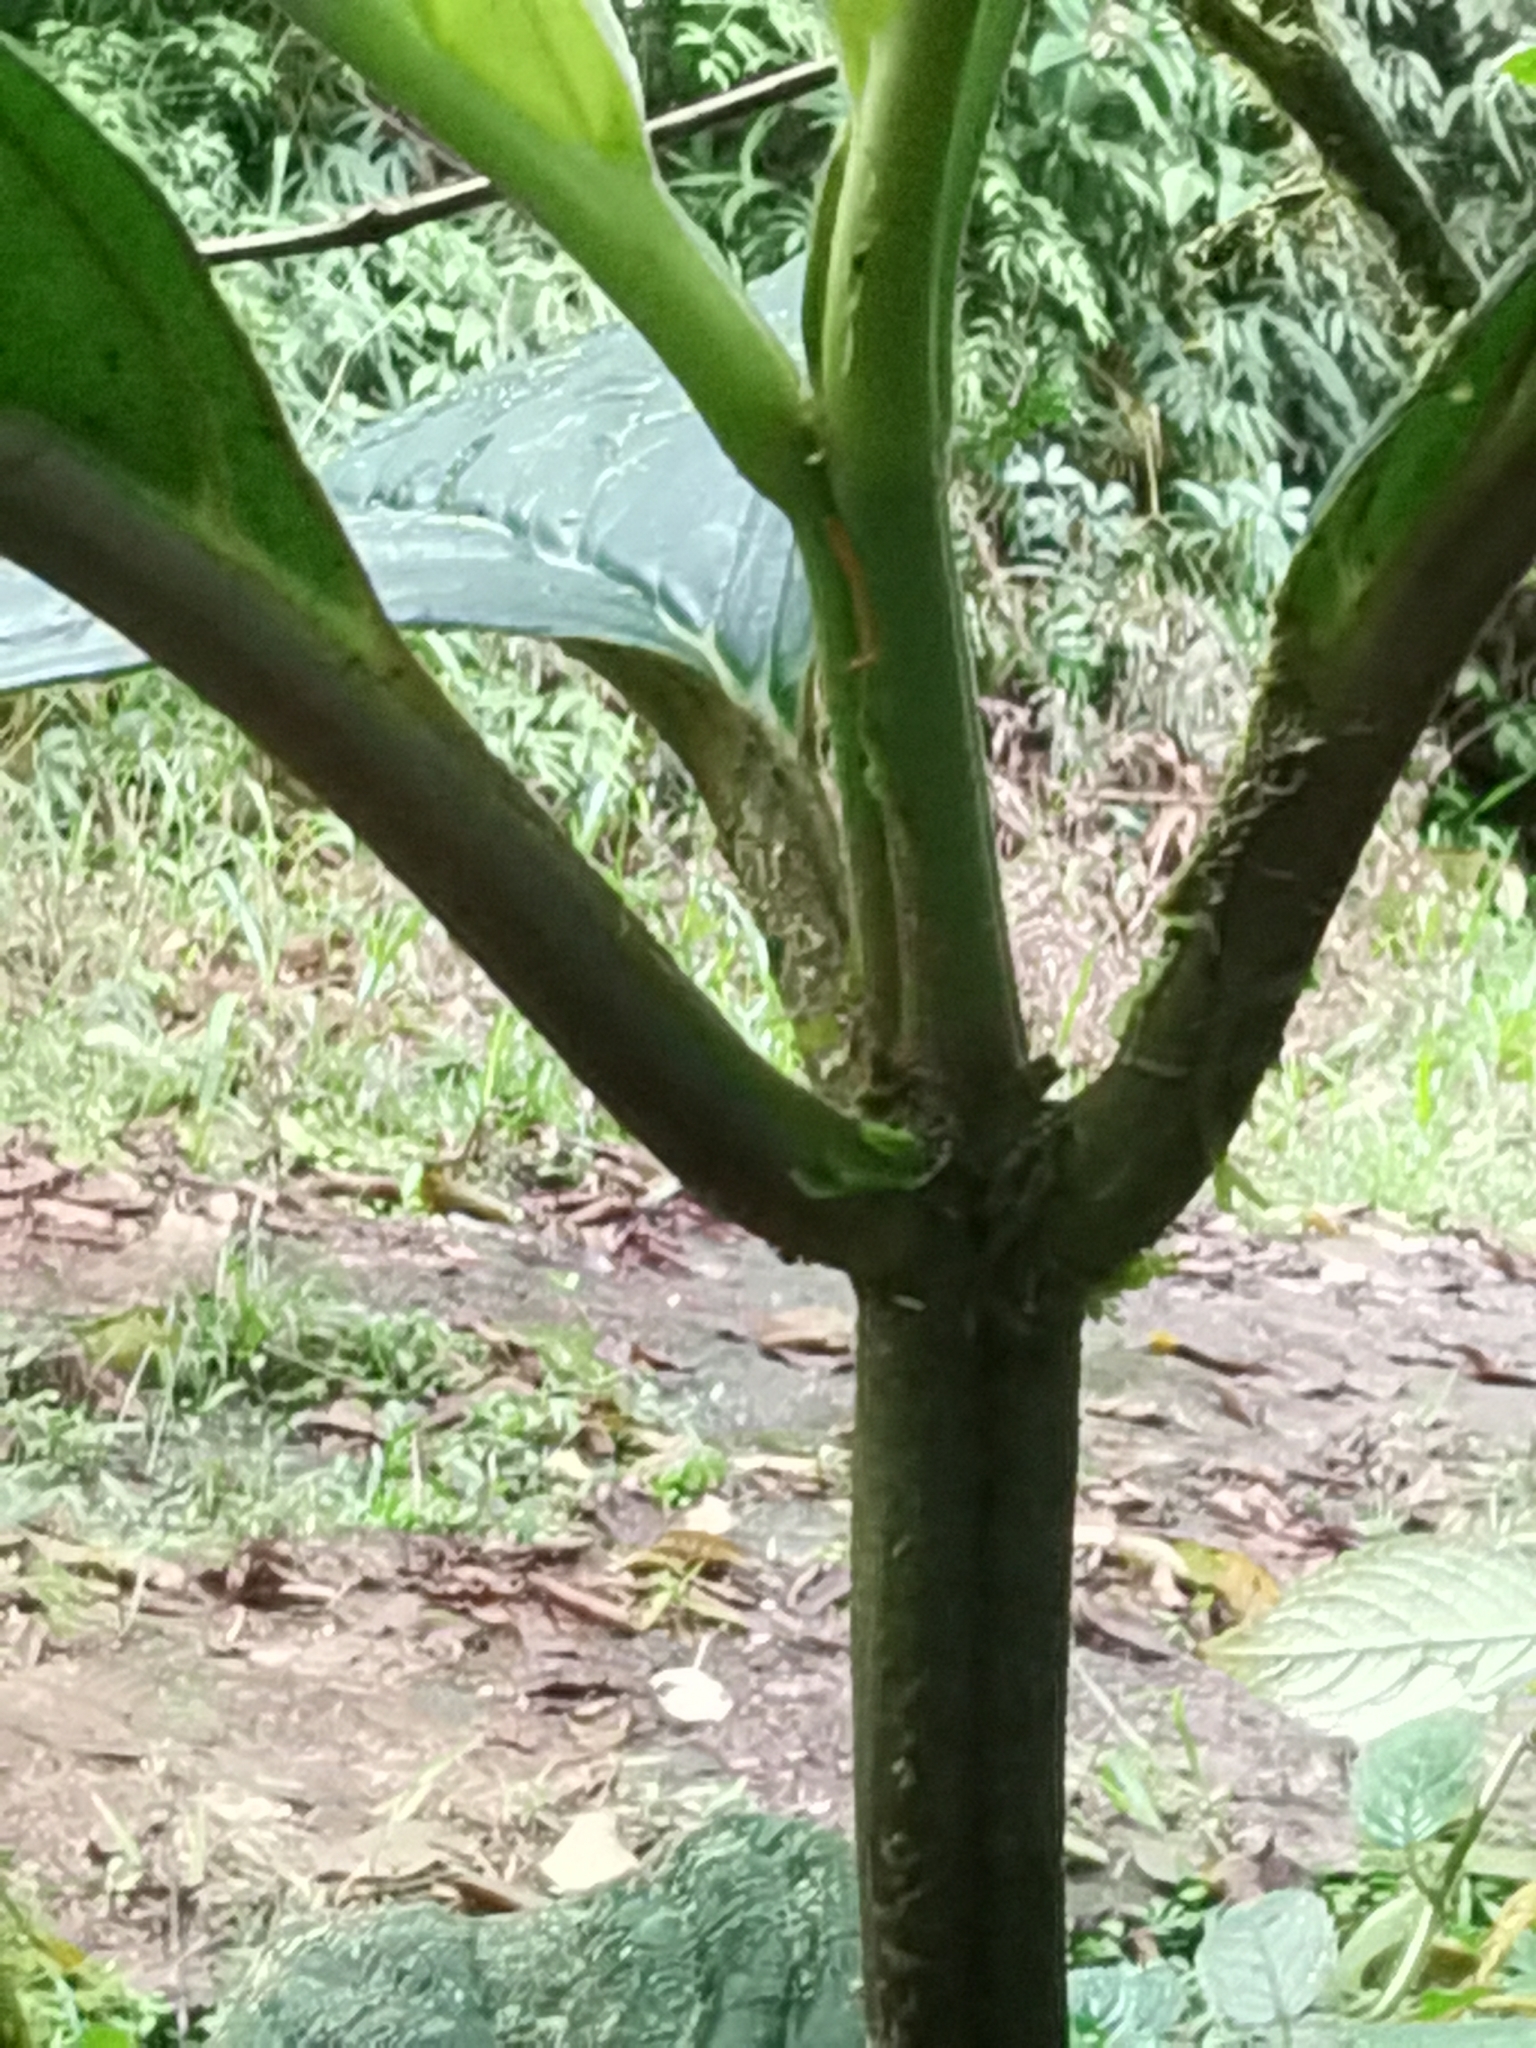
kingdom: Plantae
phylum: Tracheophyta
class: Magnoliopsida
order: Lamiales
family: Gesneriaceae
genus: Besleria
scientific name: Besleria notabilis
